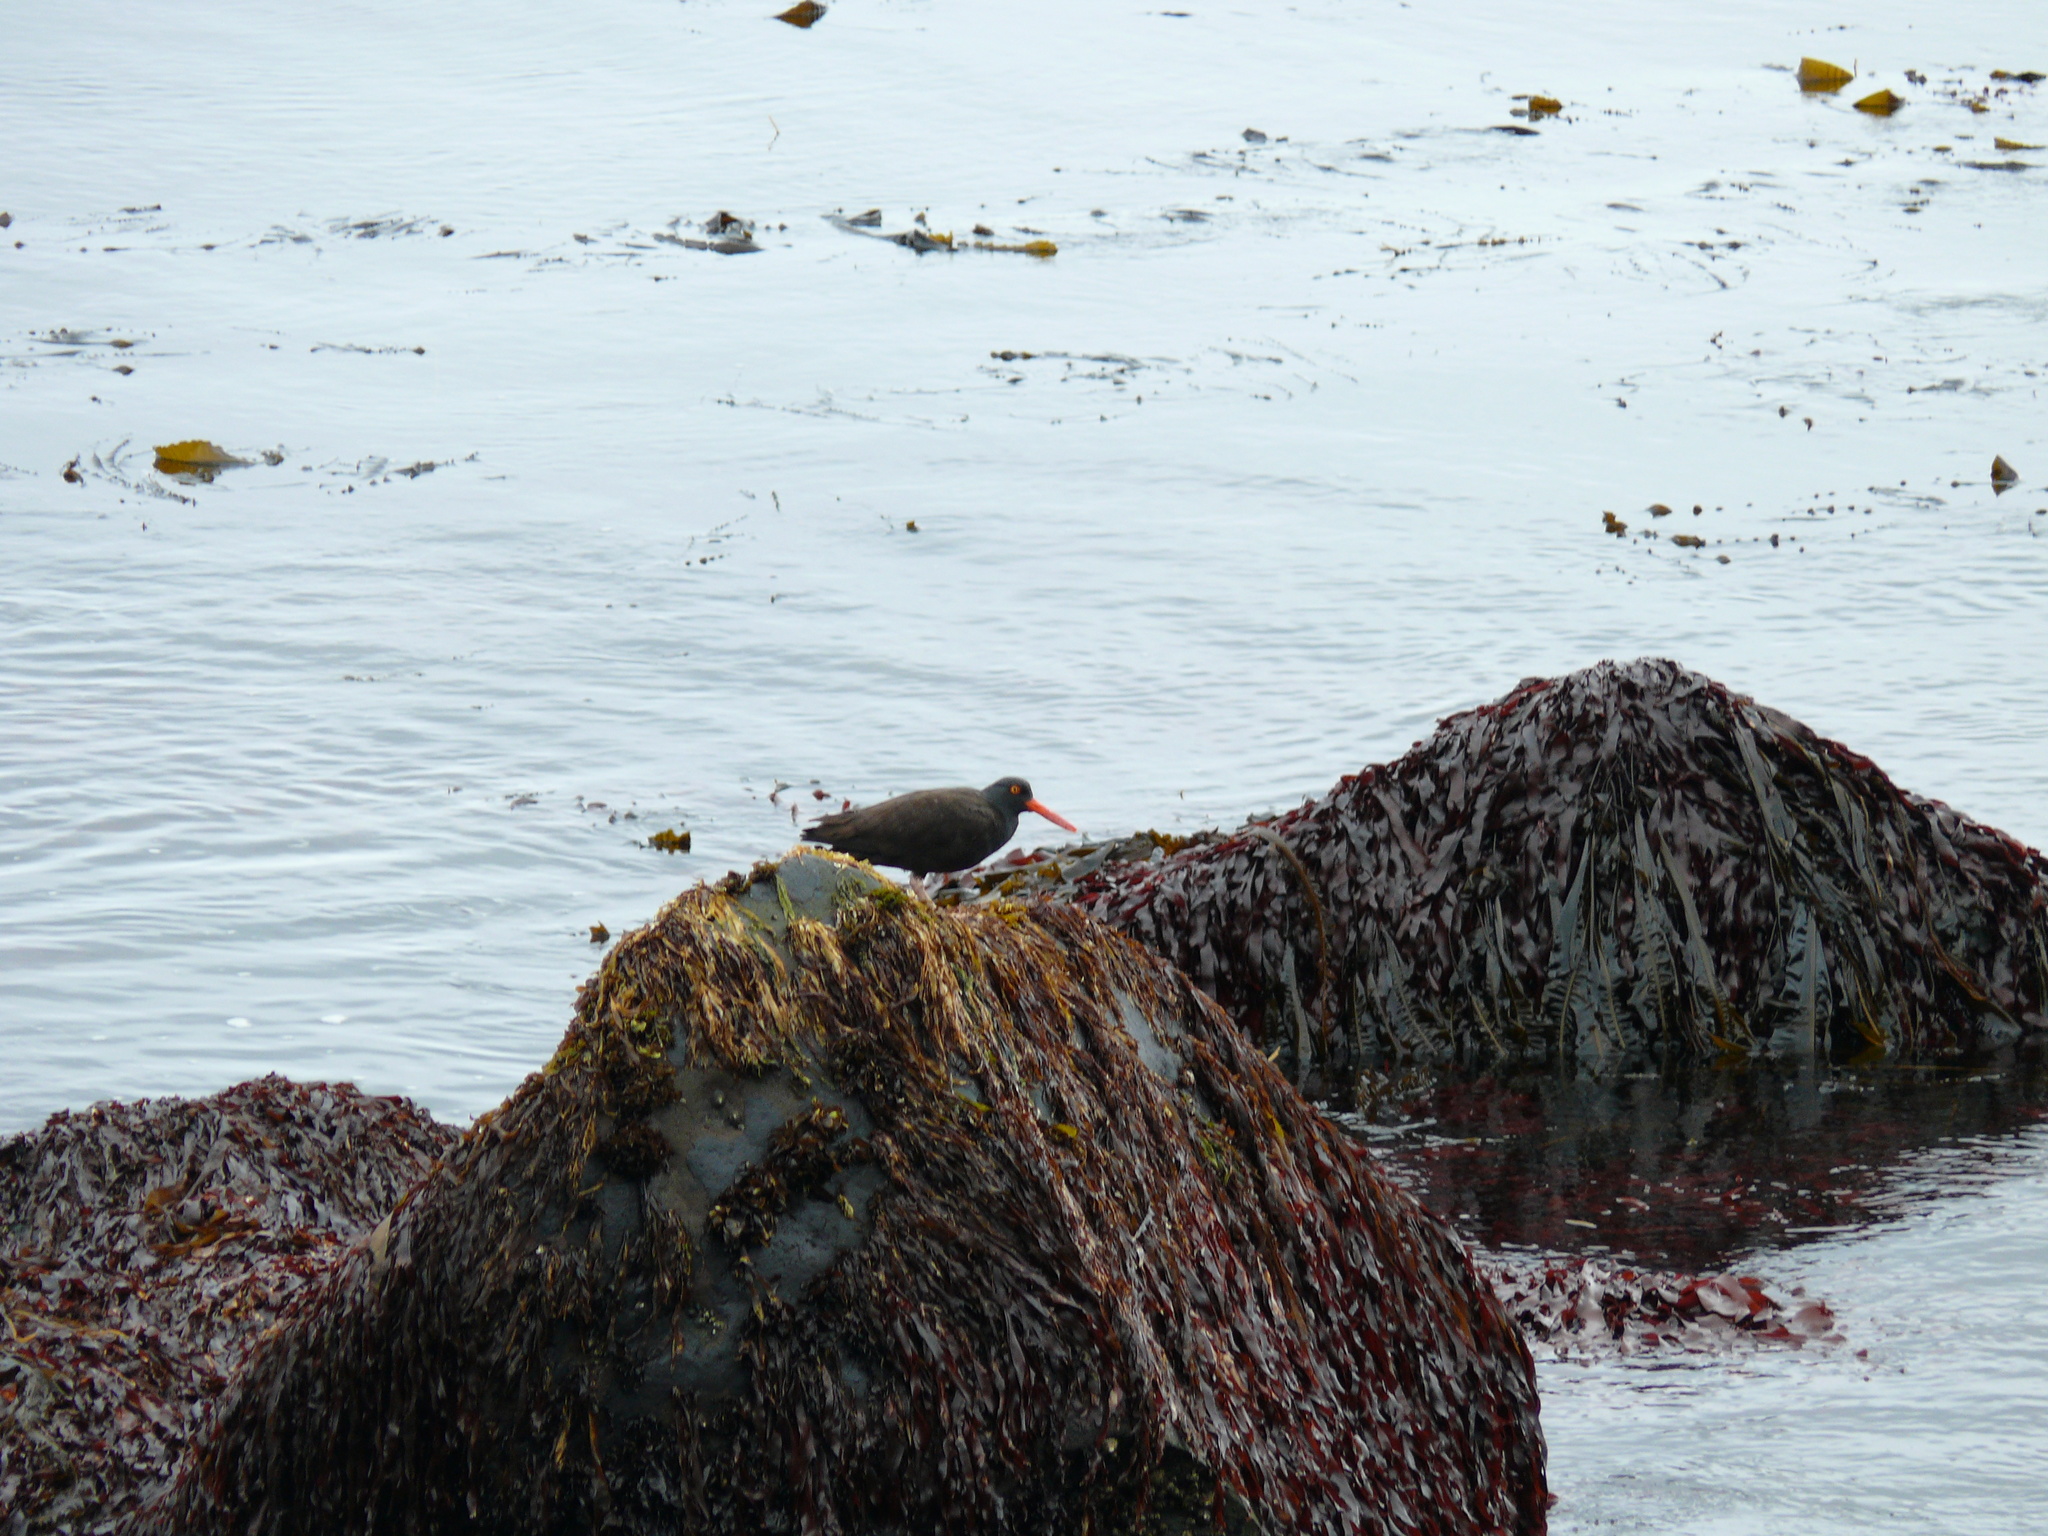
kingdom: Animalia
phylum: Chordata
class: Aves
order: Charadriiformes
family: Haematopodidae
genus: Haematopus
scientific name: Haematopus bachmani
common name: Black oystercatcher
